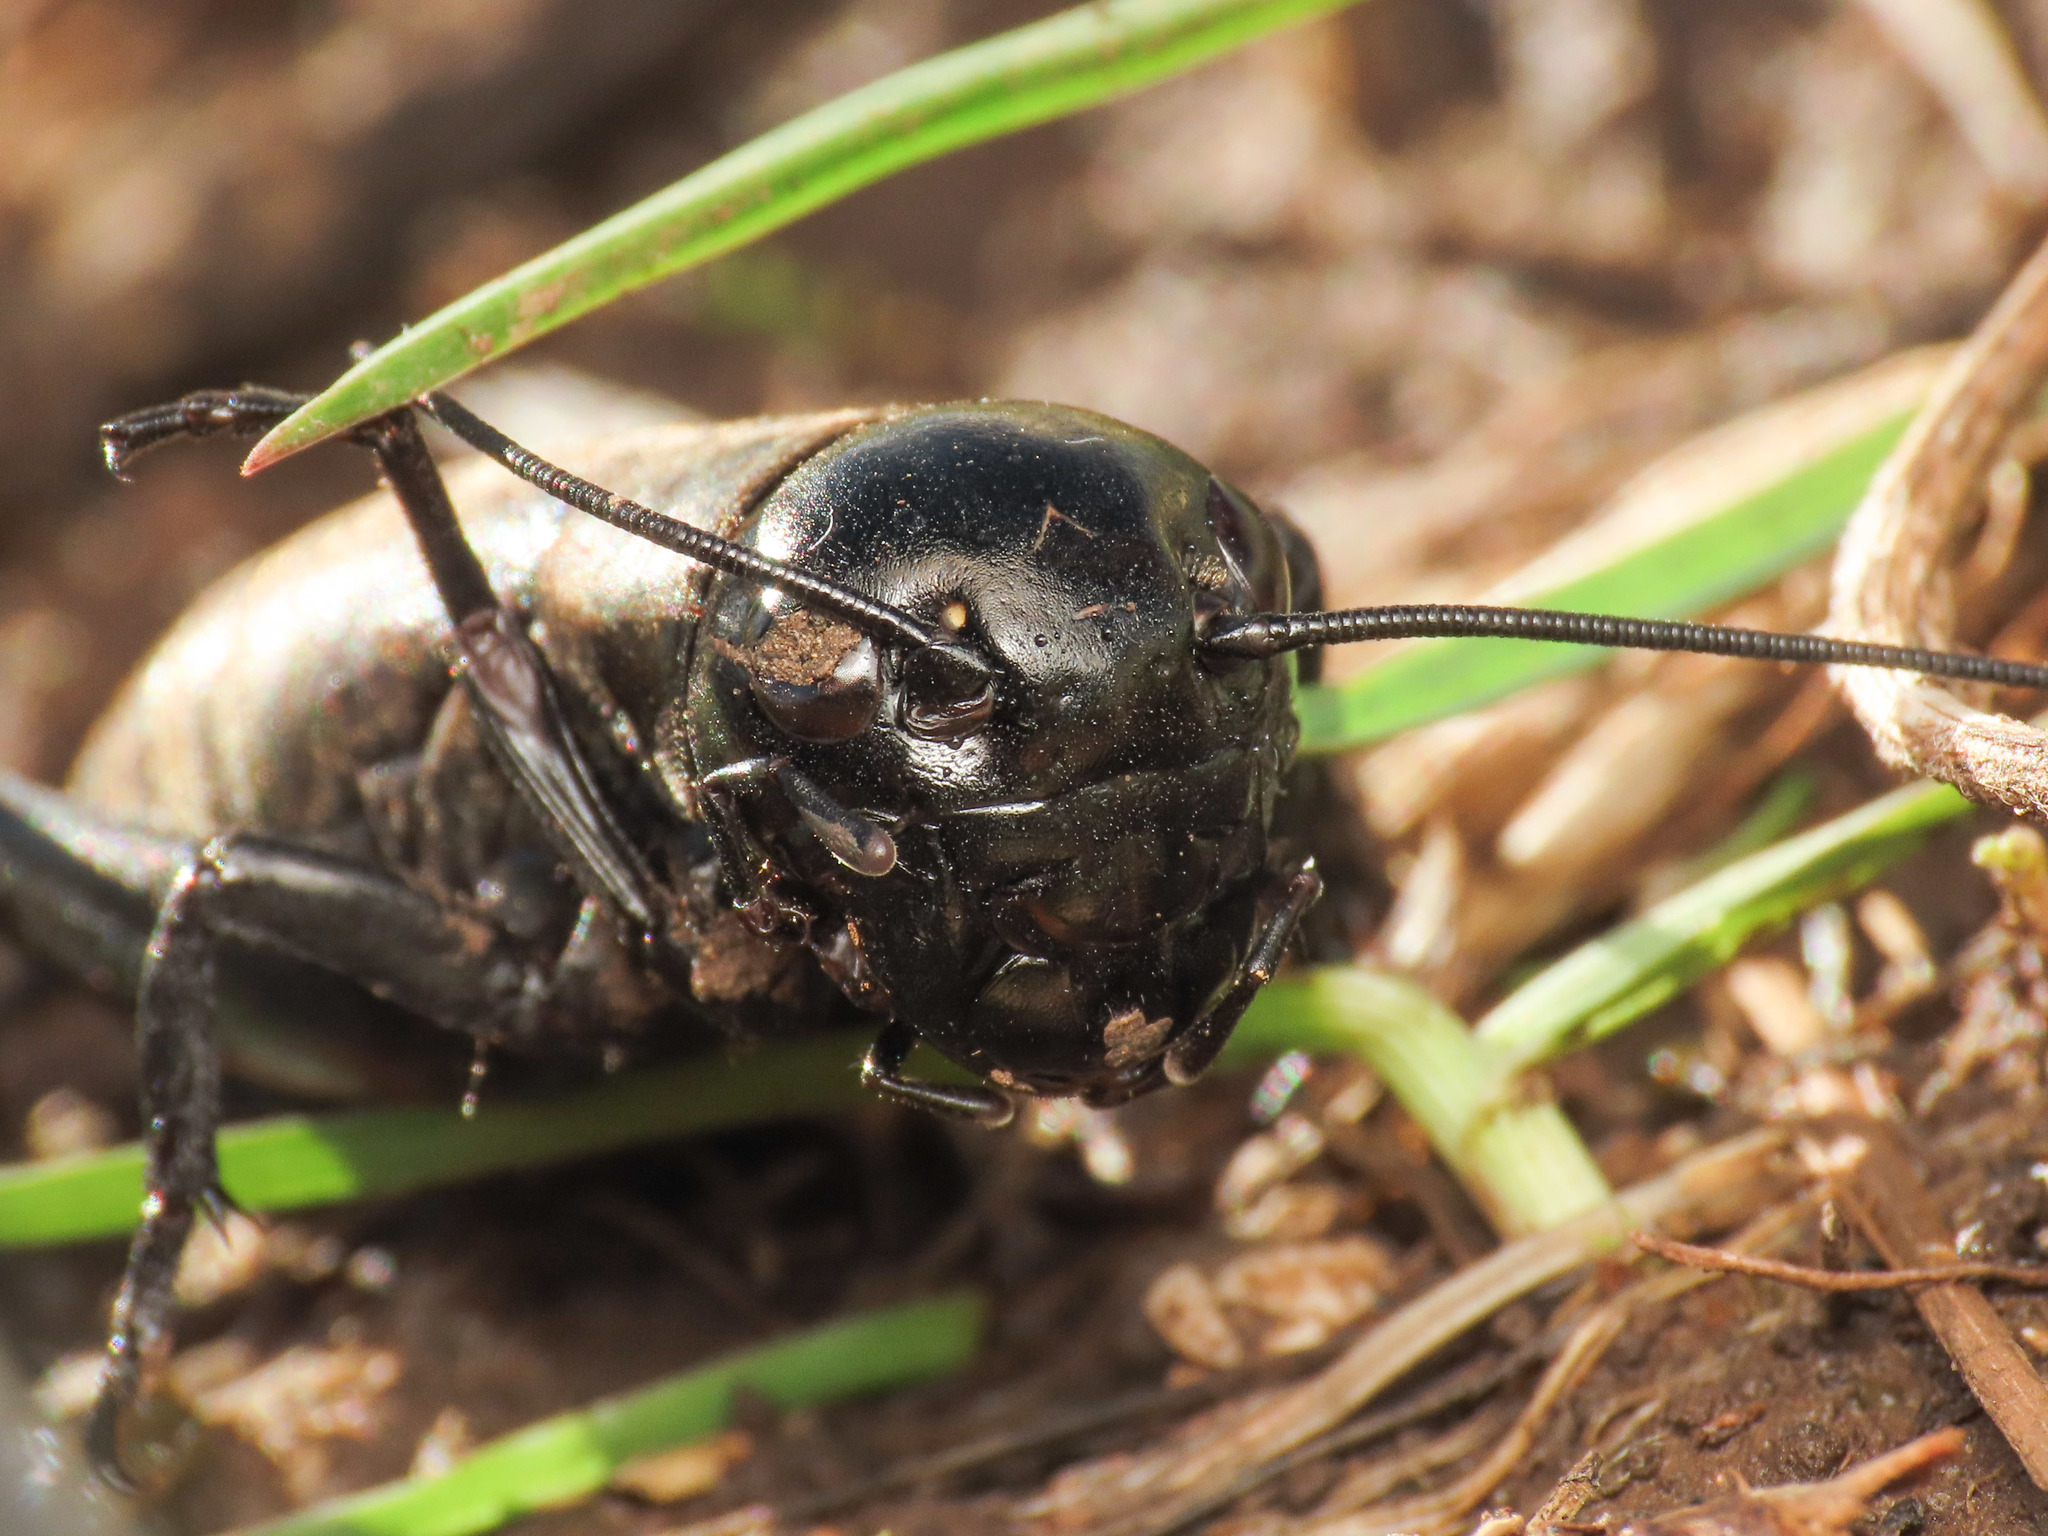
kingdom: Animalia
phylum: Arthropoda
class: Insecta
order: Orthoptera
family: Gryllidae
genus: Gryllus
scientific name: Gryllus campestris
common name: Field cricket
